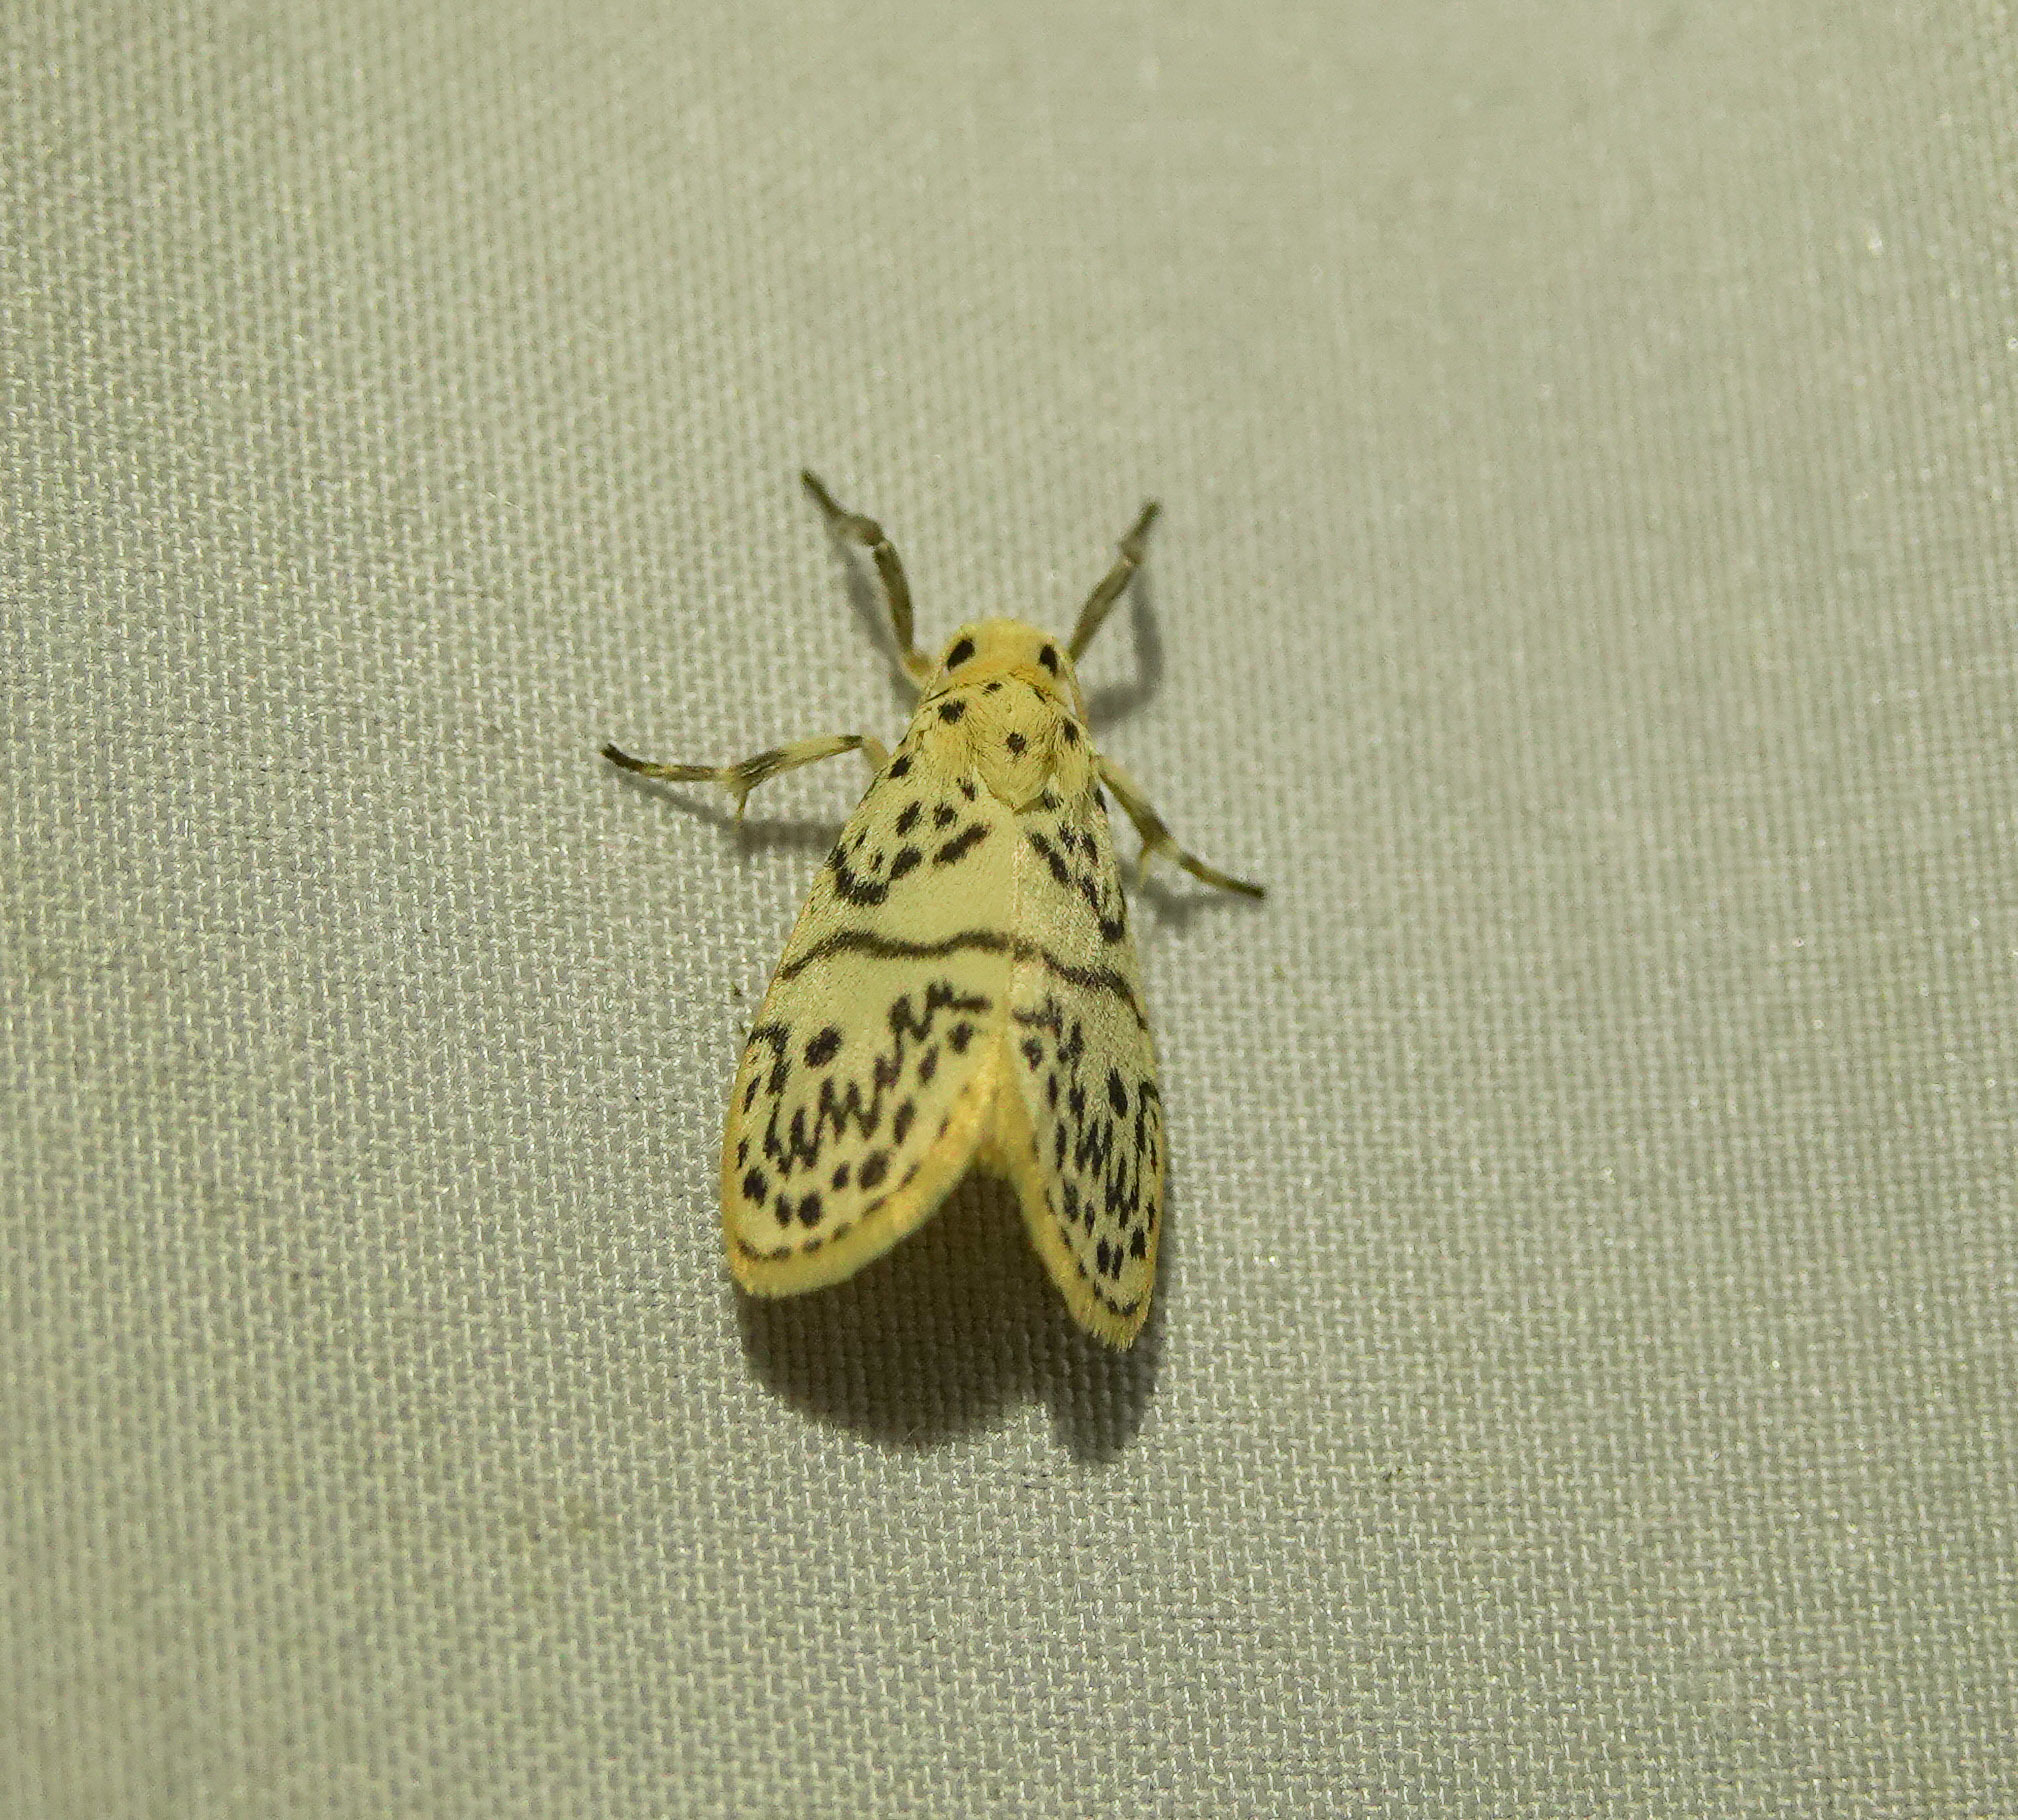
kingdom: Animalia
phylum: Arthropoda
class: Insecta
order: Lepidoptera
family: Erebidae
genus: Miltochrista
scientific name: Miltochrista undulosa
